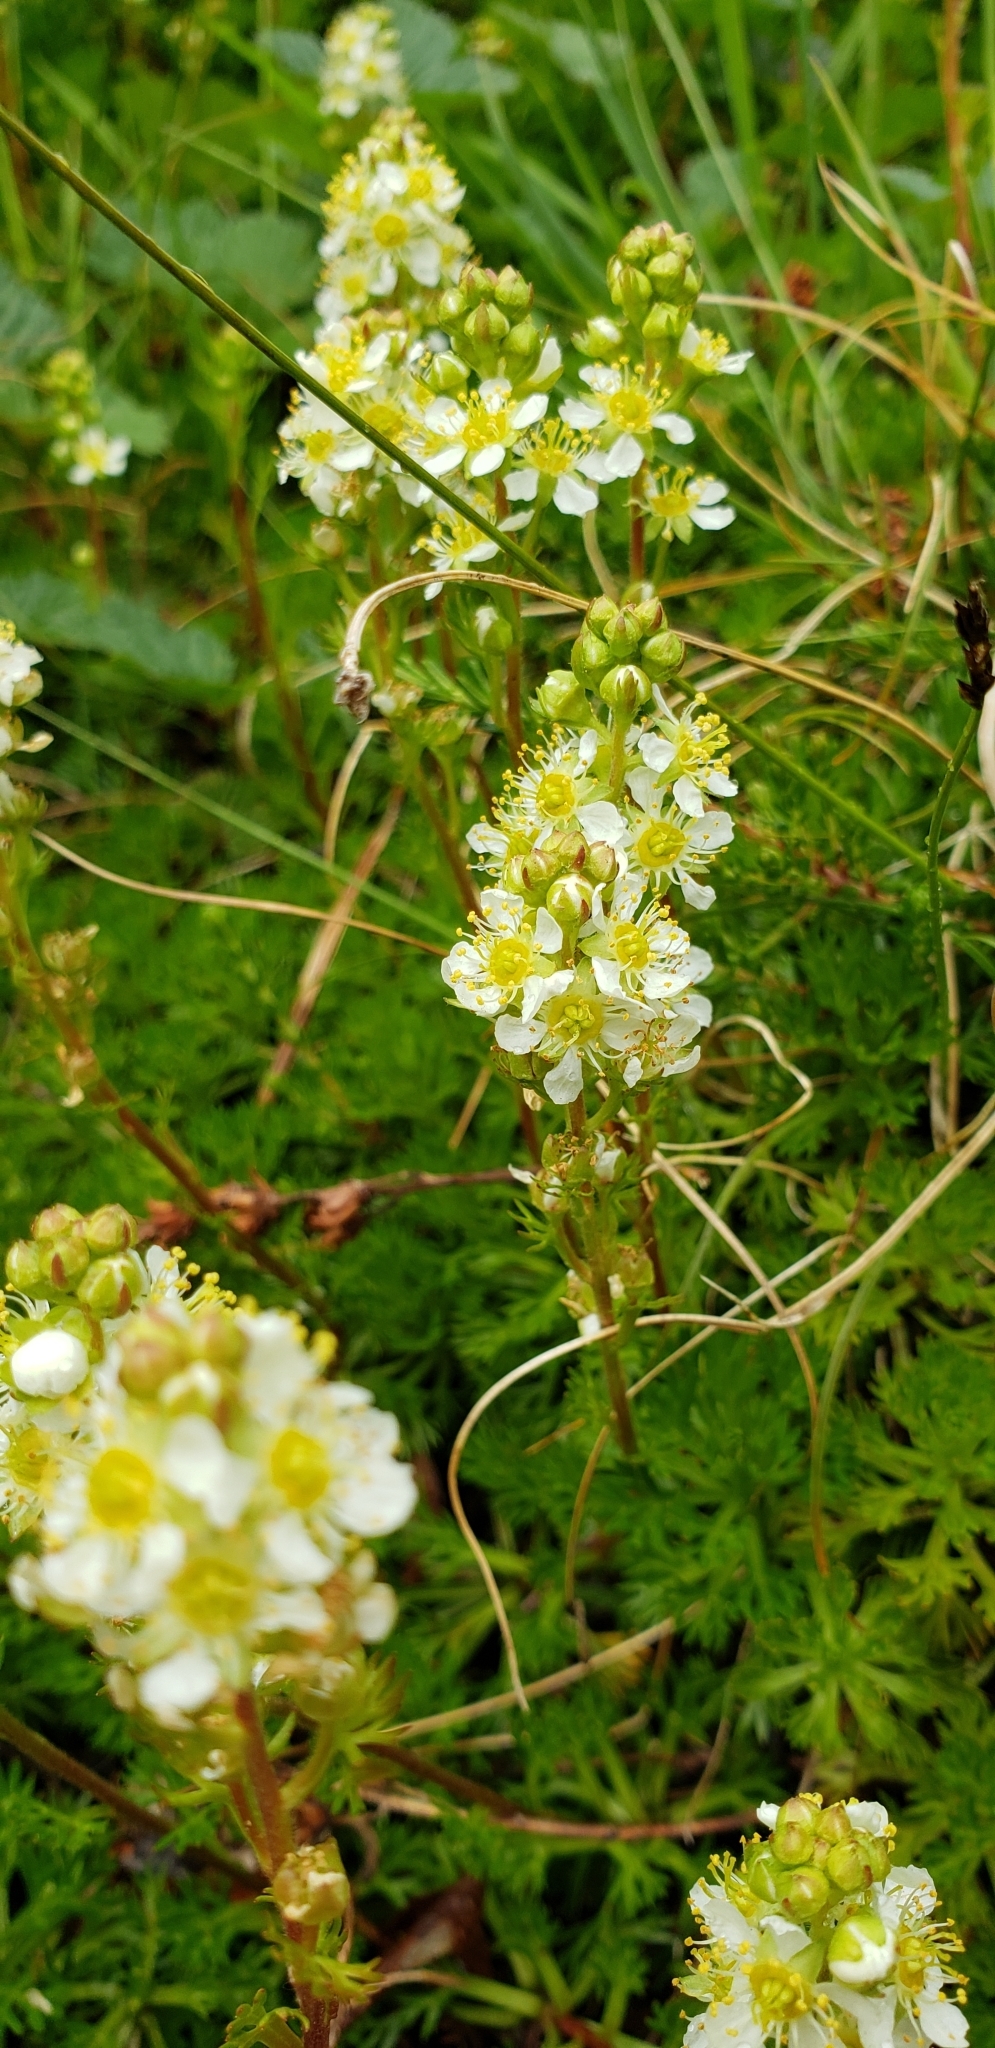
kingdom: Plantae
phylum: Tracheophyta
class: Magnoliopsida
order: Rosales
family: Rosaceae
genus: Luetkea
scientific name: Luetkea pectinata
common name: Partridgefoot
